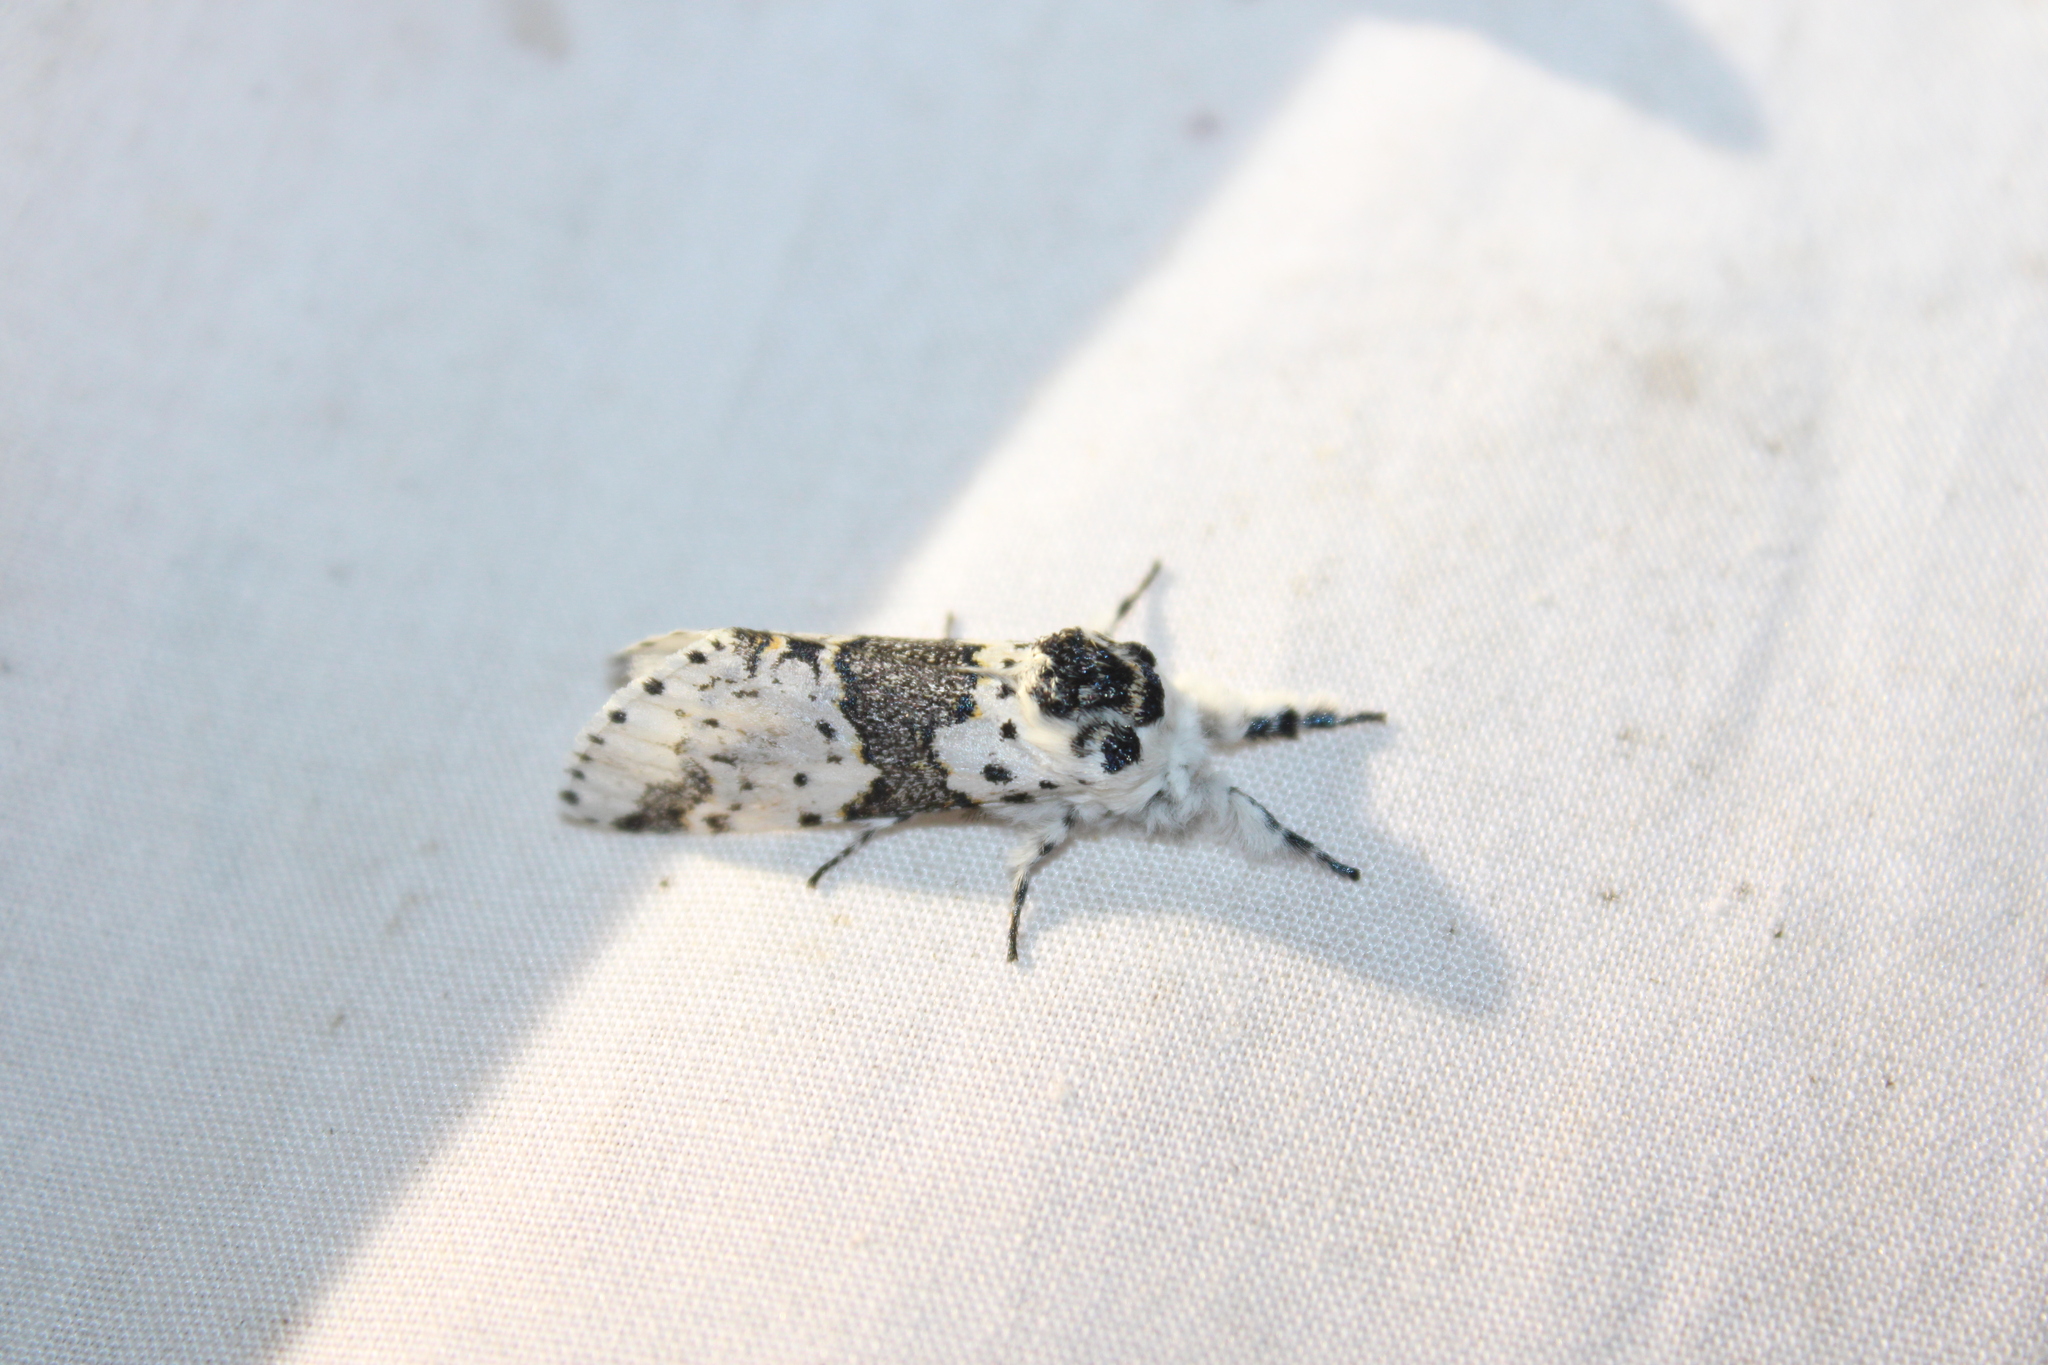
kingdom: Animalia
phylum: Arthropoda
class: Insecta
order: Lepidoptera
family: Notodontidae
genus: Furcula
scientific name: Furcula borealis
